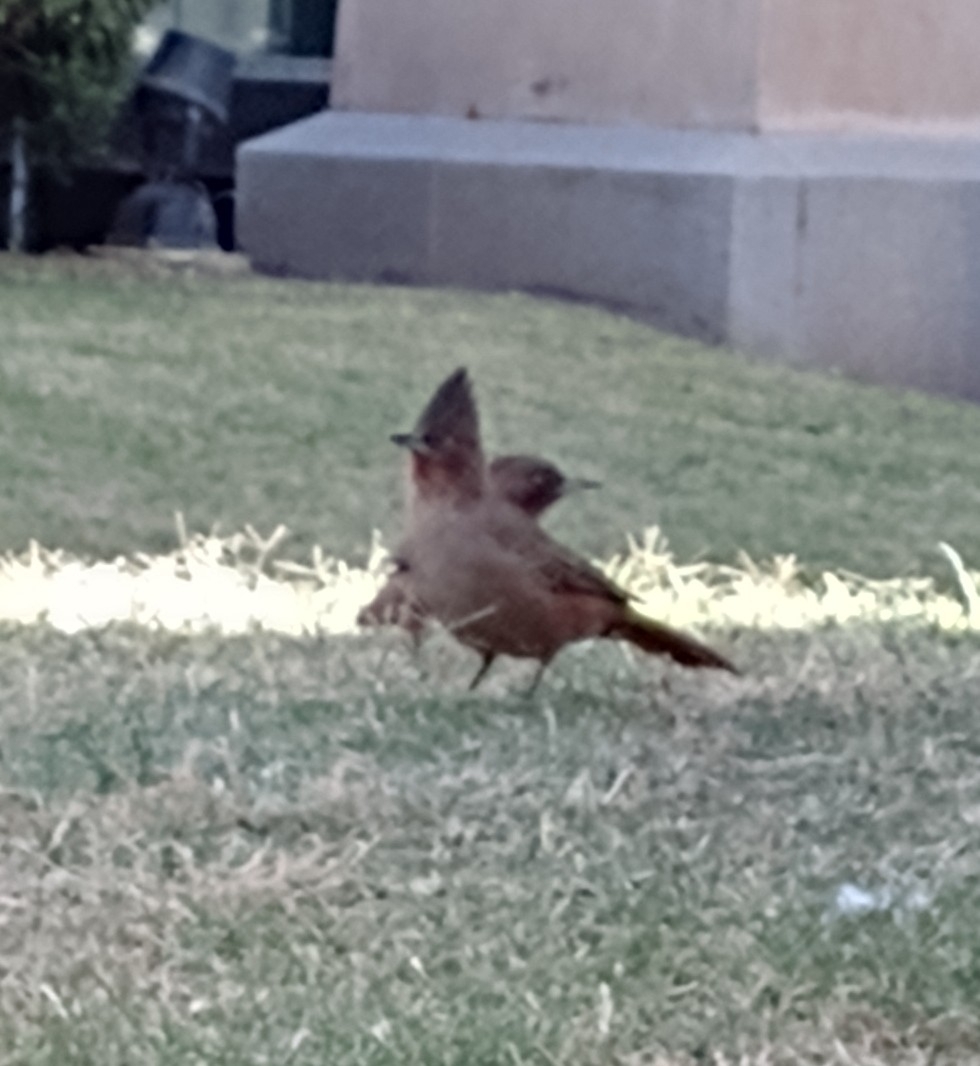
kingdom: Animalia
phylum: Chordata
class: Aves
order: Passeriformes
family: Furnariidae
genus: Pseudoseisura
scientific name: Pseudoseisura lophotes
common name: Brown cacholote
